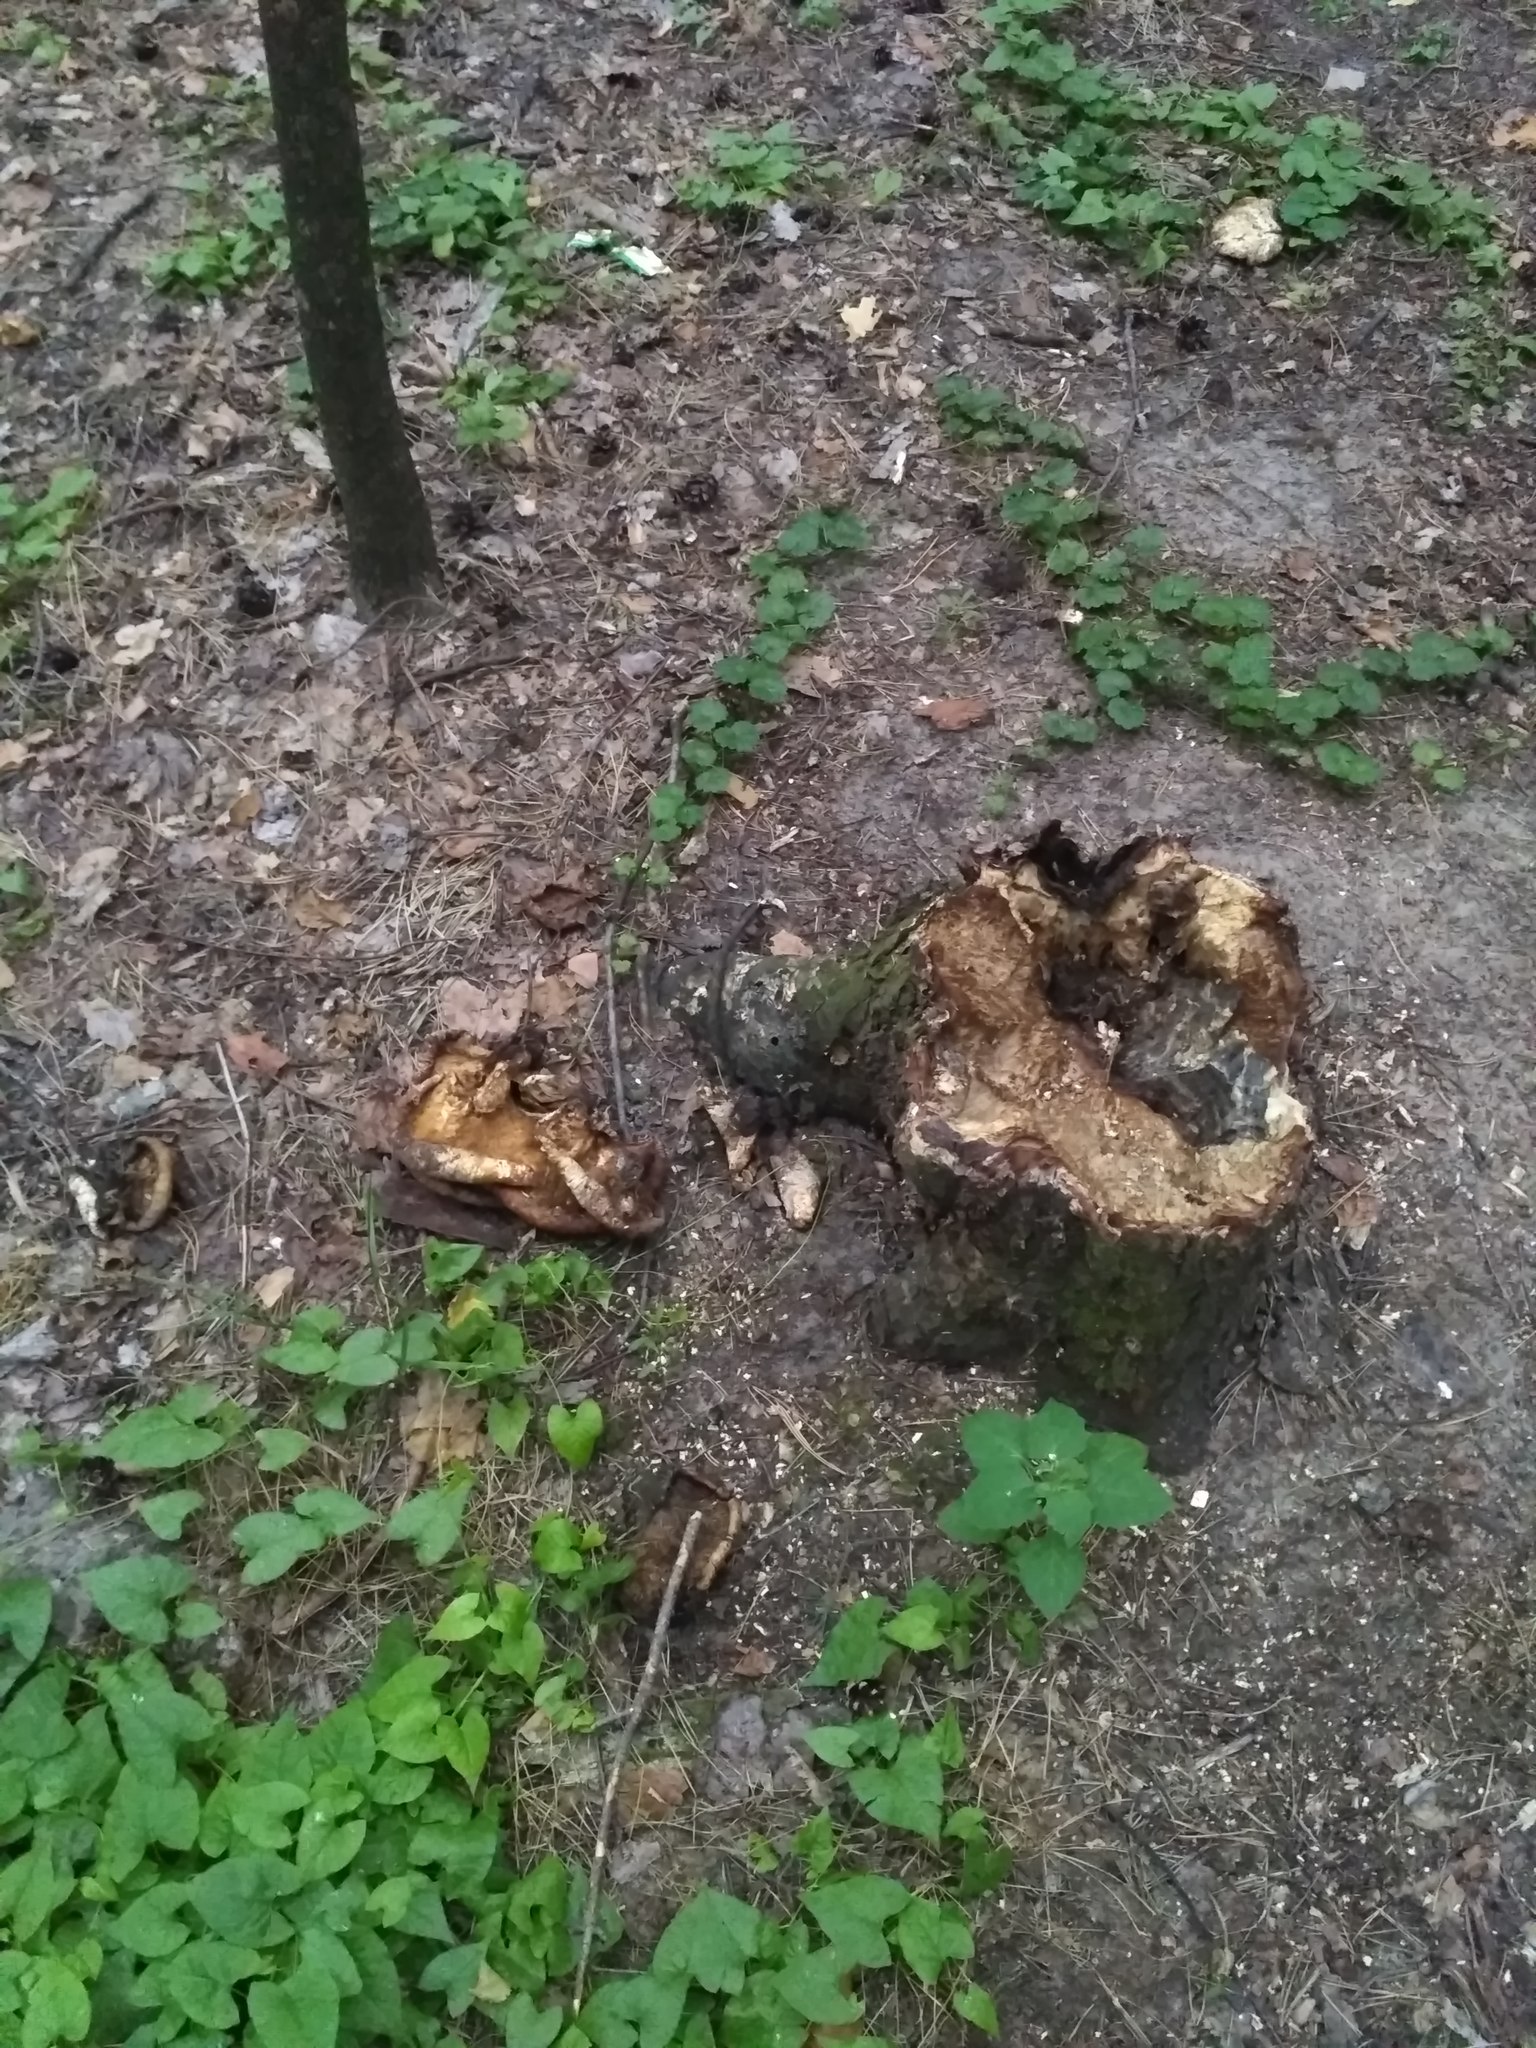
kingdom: Fungi
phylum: Basidiomycota
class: Agaricomycetes
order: Polyporales
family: Polyporaceae
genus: Cerioporus
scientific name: Cerioporus squamosus
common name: Dryad's saddle
